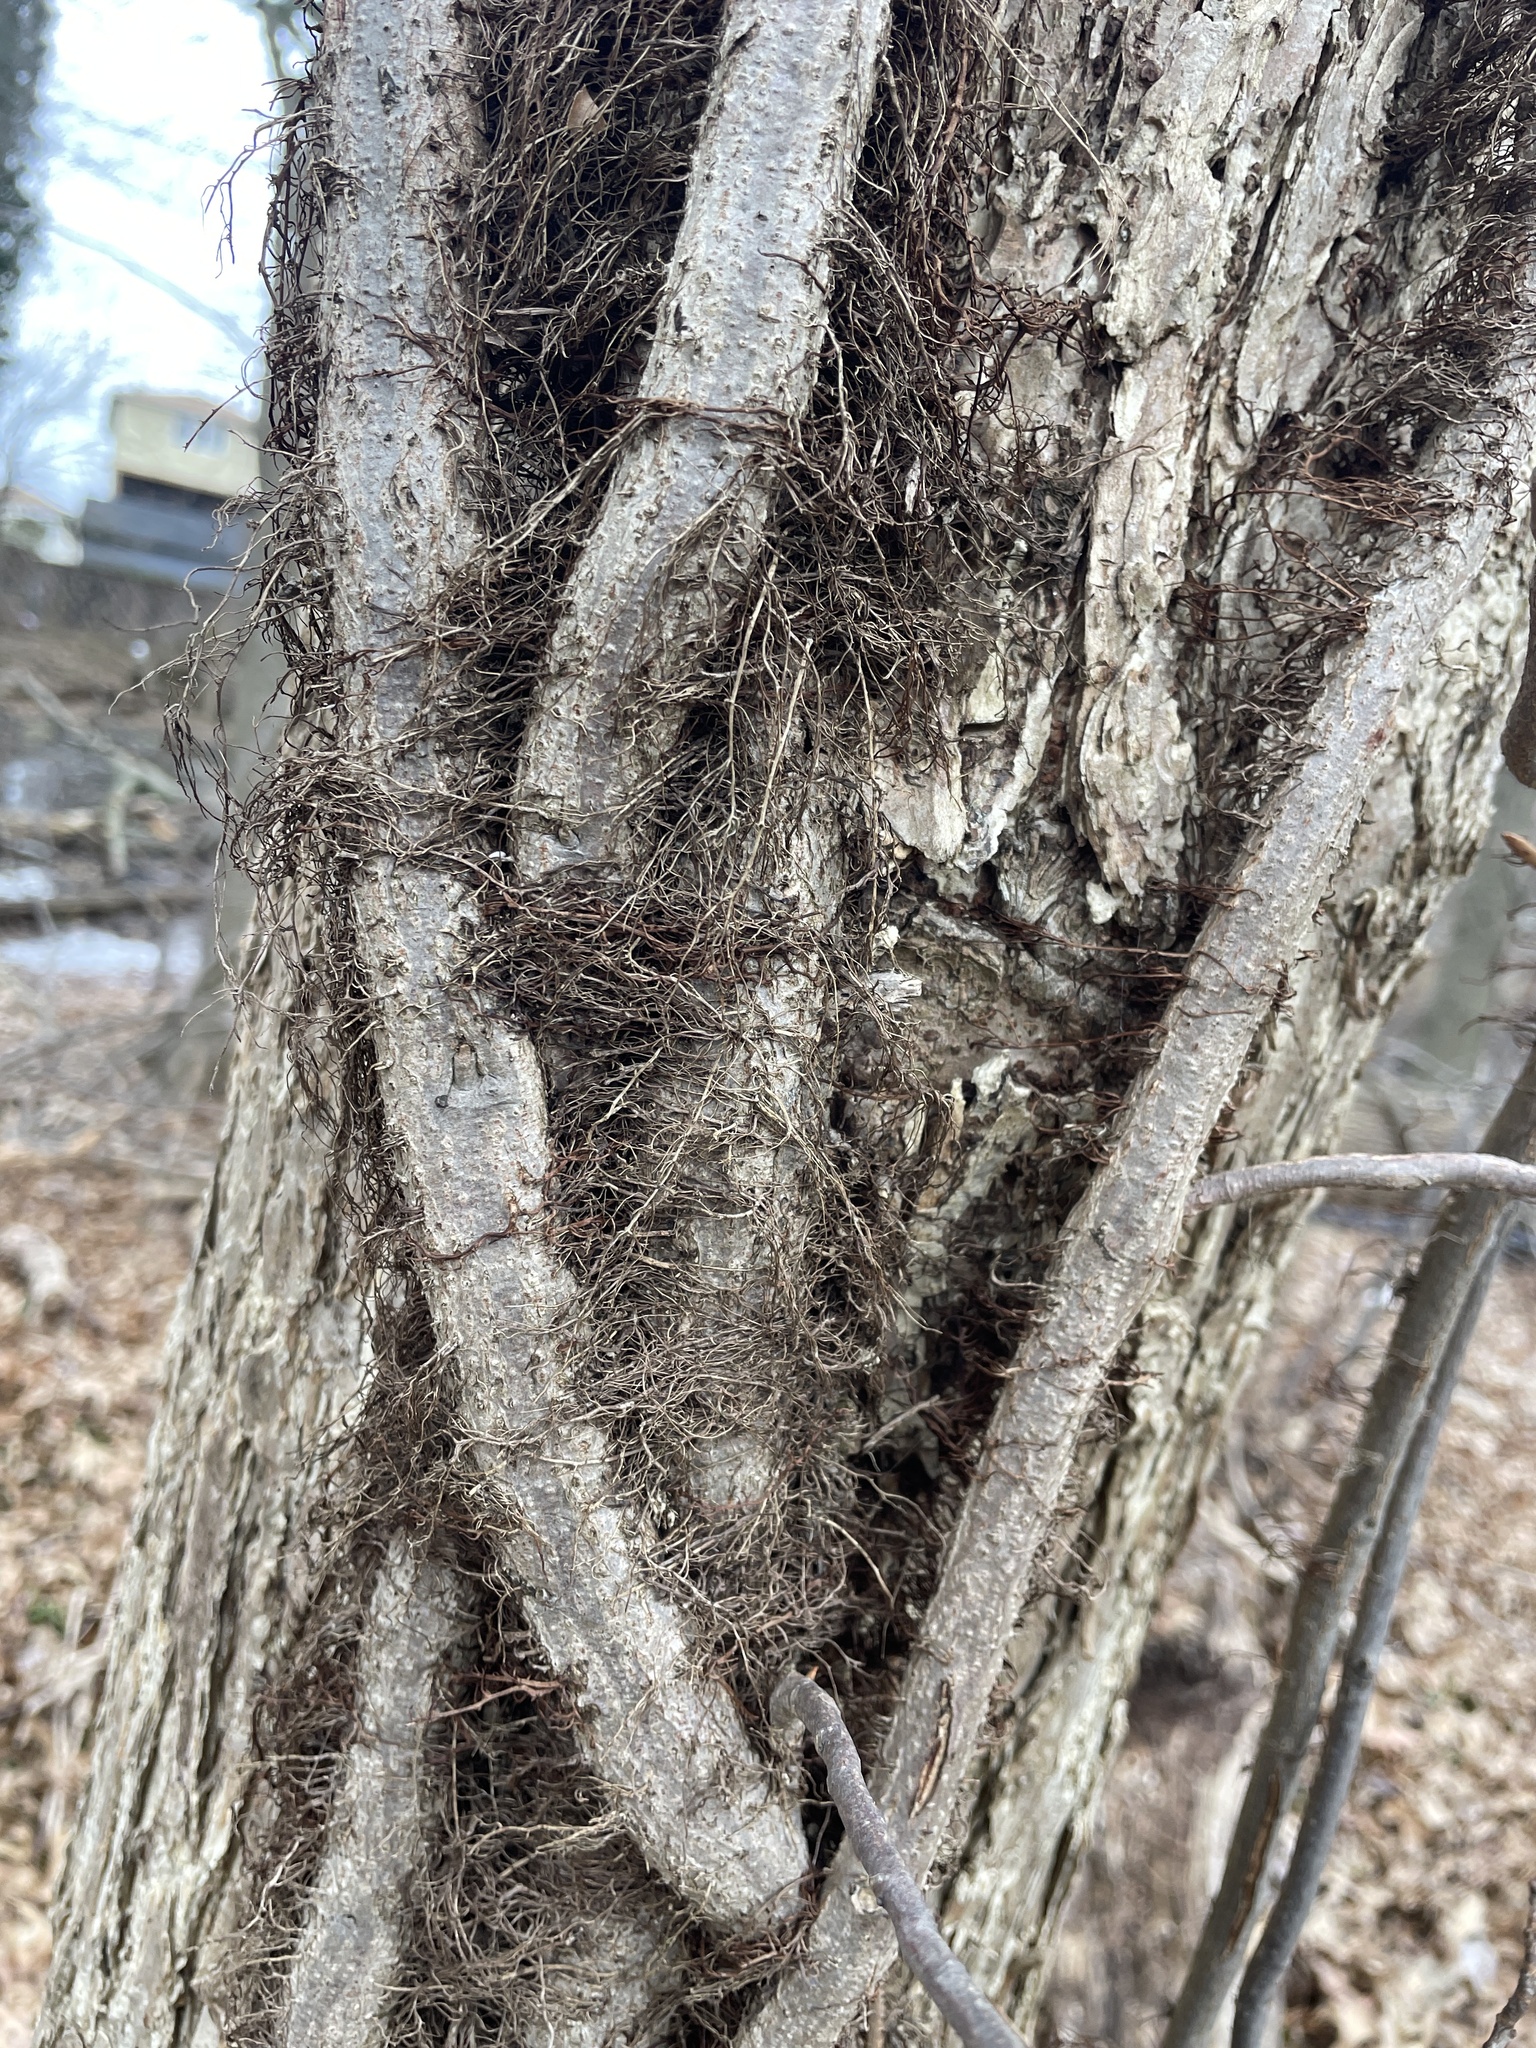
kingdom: Plantae
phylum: Tracheophyta
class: Magnoliopsida
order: Sapindales
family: Anacardiaceae
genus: Toxicodendron
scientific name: Toxicodendron radicans
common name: Poison ivy
